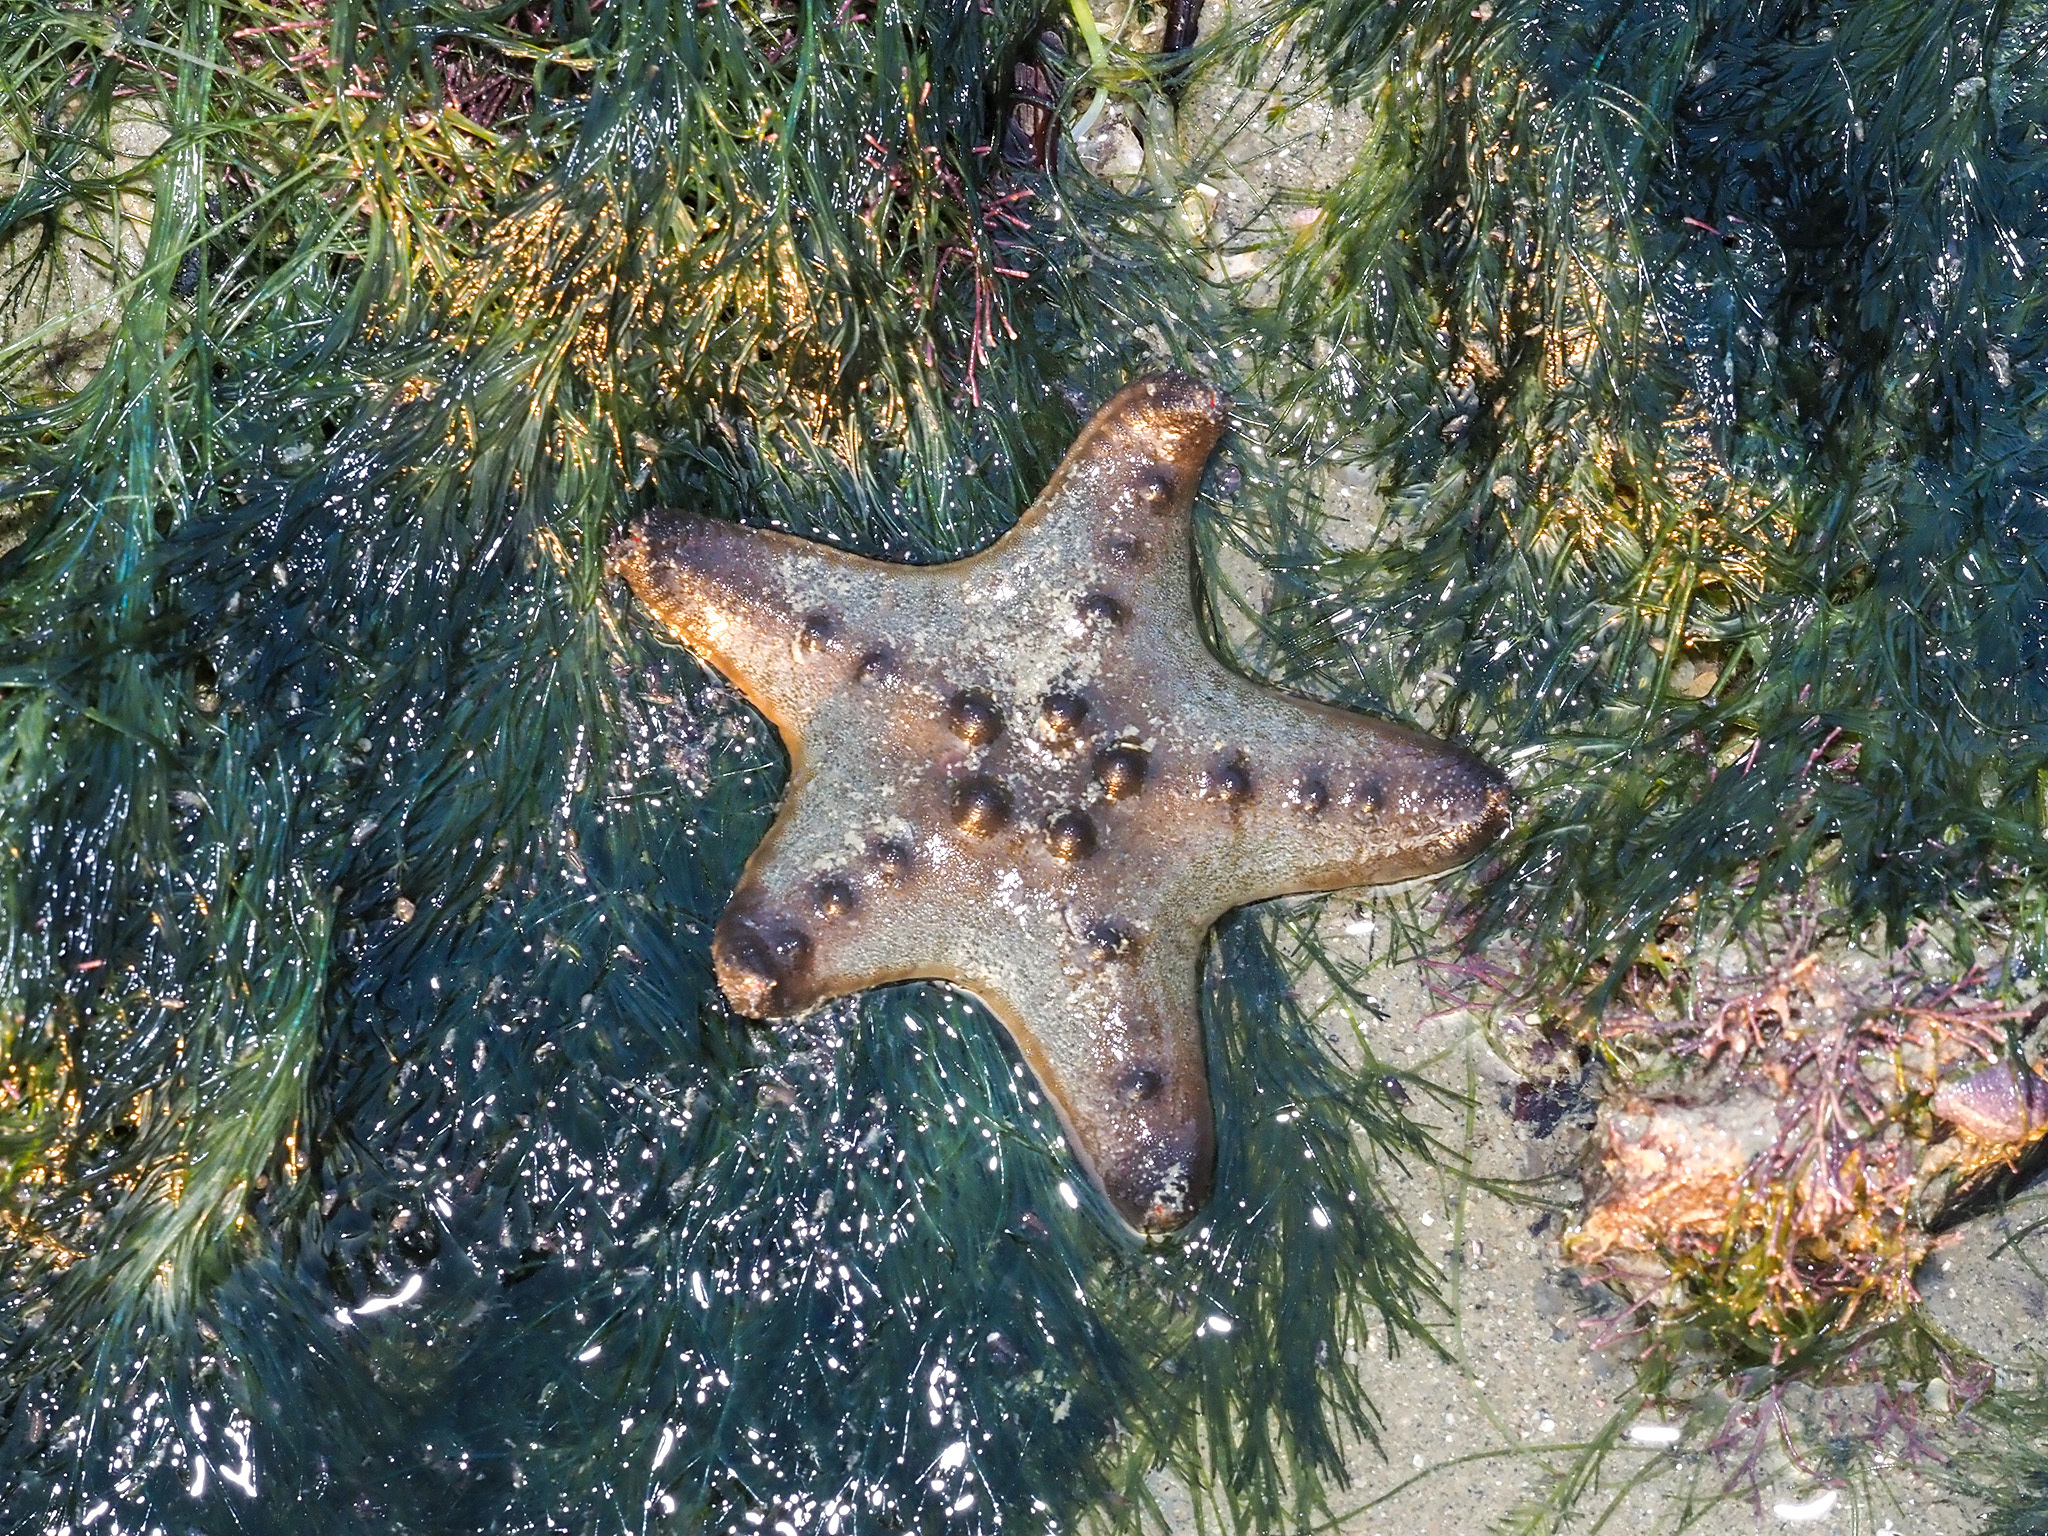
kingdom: Animalia
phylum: Echinodermata
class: Asteroidea
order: Valvatida
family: Oreasteridae
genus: Protoreaster
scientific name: Protoreaster nodosus
